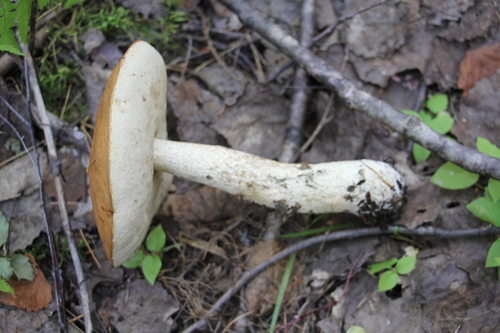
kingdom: Fungi
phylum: Basidiomycota
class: Agaricomycetes
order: Boletales
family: Boletaceae
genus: Leccinum
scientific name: Leccinum albostipitatum
